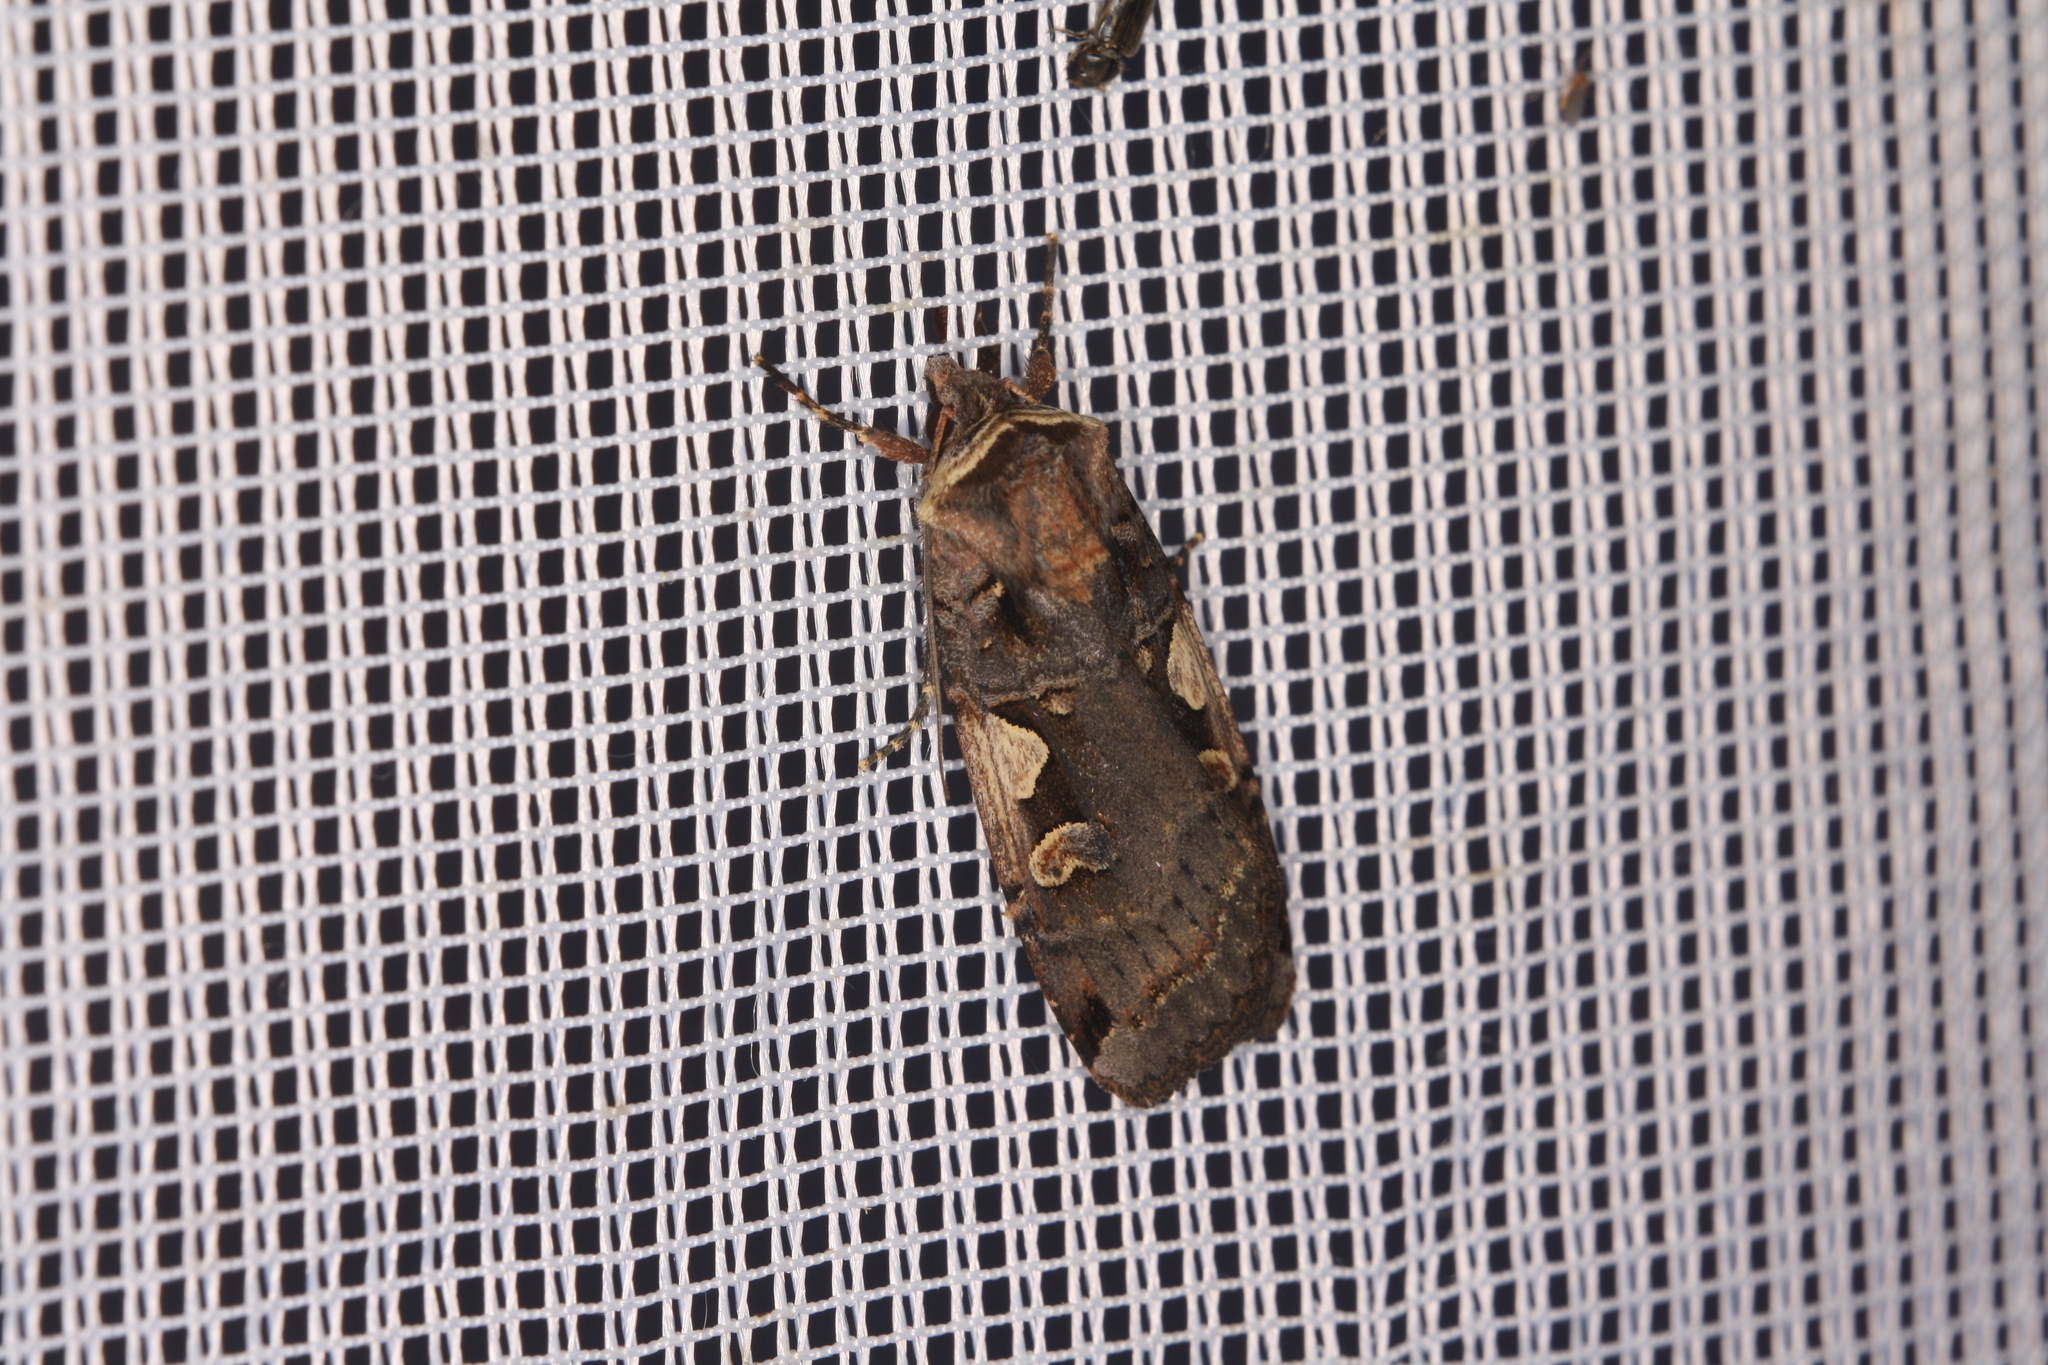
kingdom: Animalia
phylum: Arthropoda
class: Insecta
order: Lepidoptera
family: Noctuidae
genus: Xestia
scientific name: Xestia c-nigrum
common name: Setaceous hebrew character
